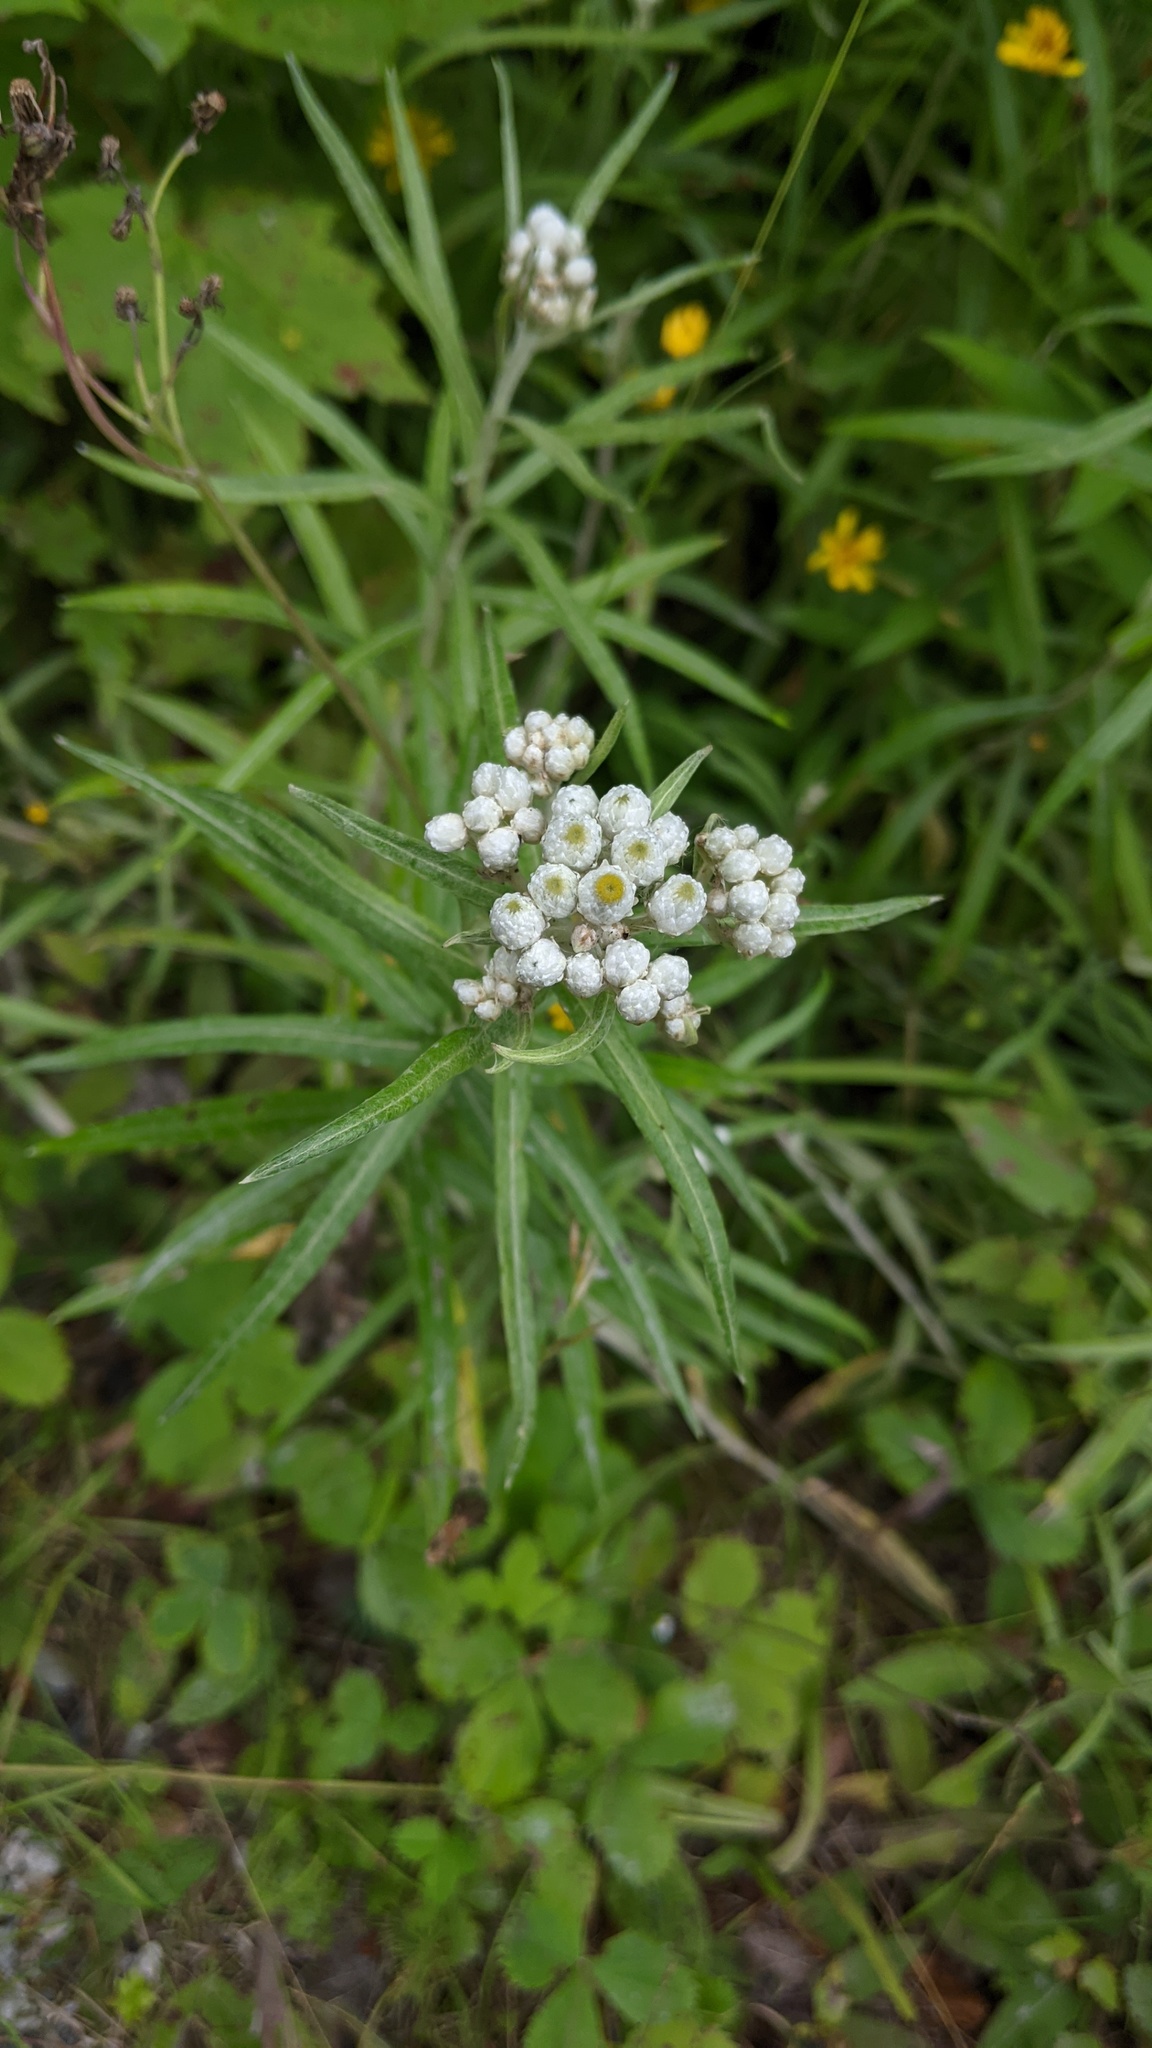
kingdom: Plantae
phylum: Tracheophyta
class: Magnoliopsida
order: Asterales
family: Asteraceae
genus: Anaphalis
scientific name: Anaphalis margaritacea
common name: Pearly everlasting
